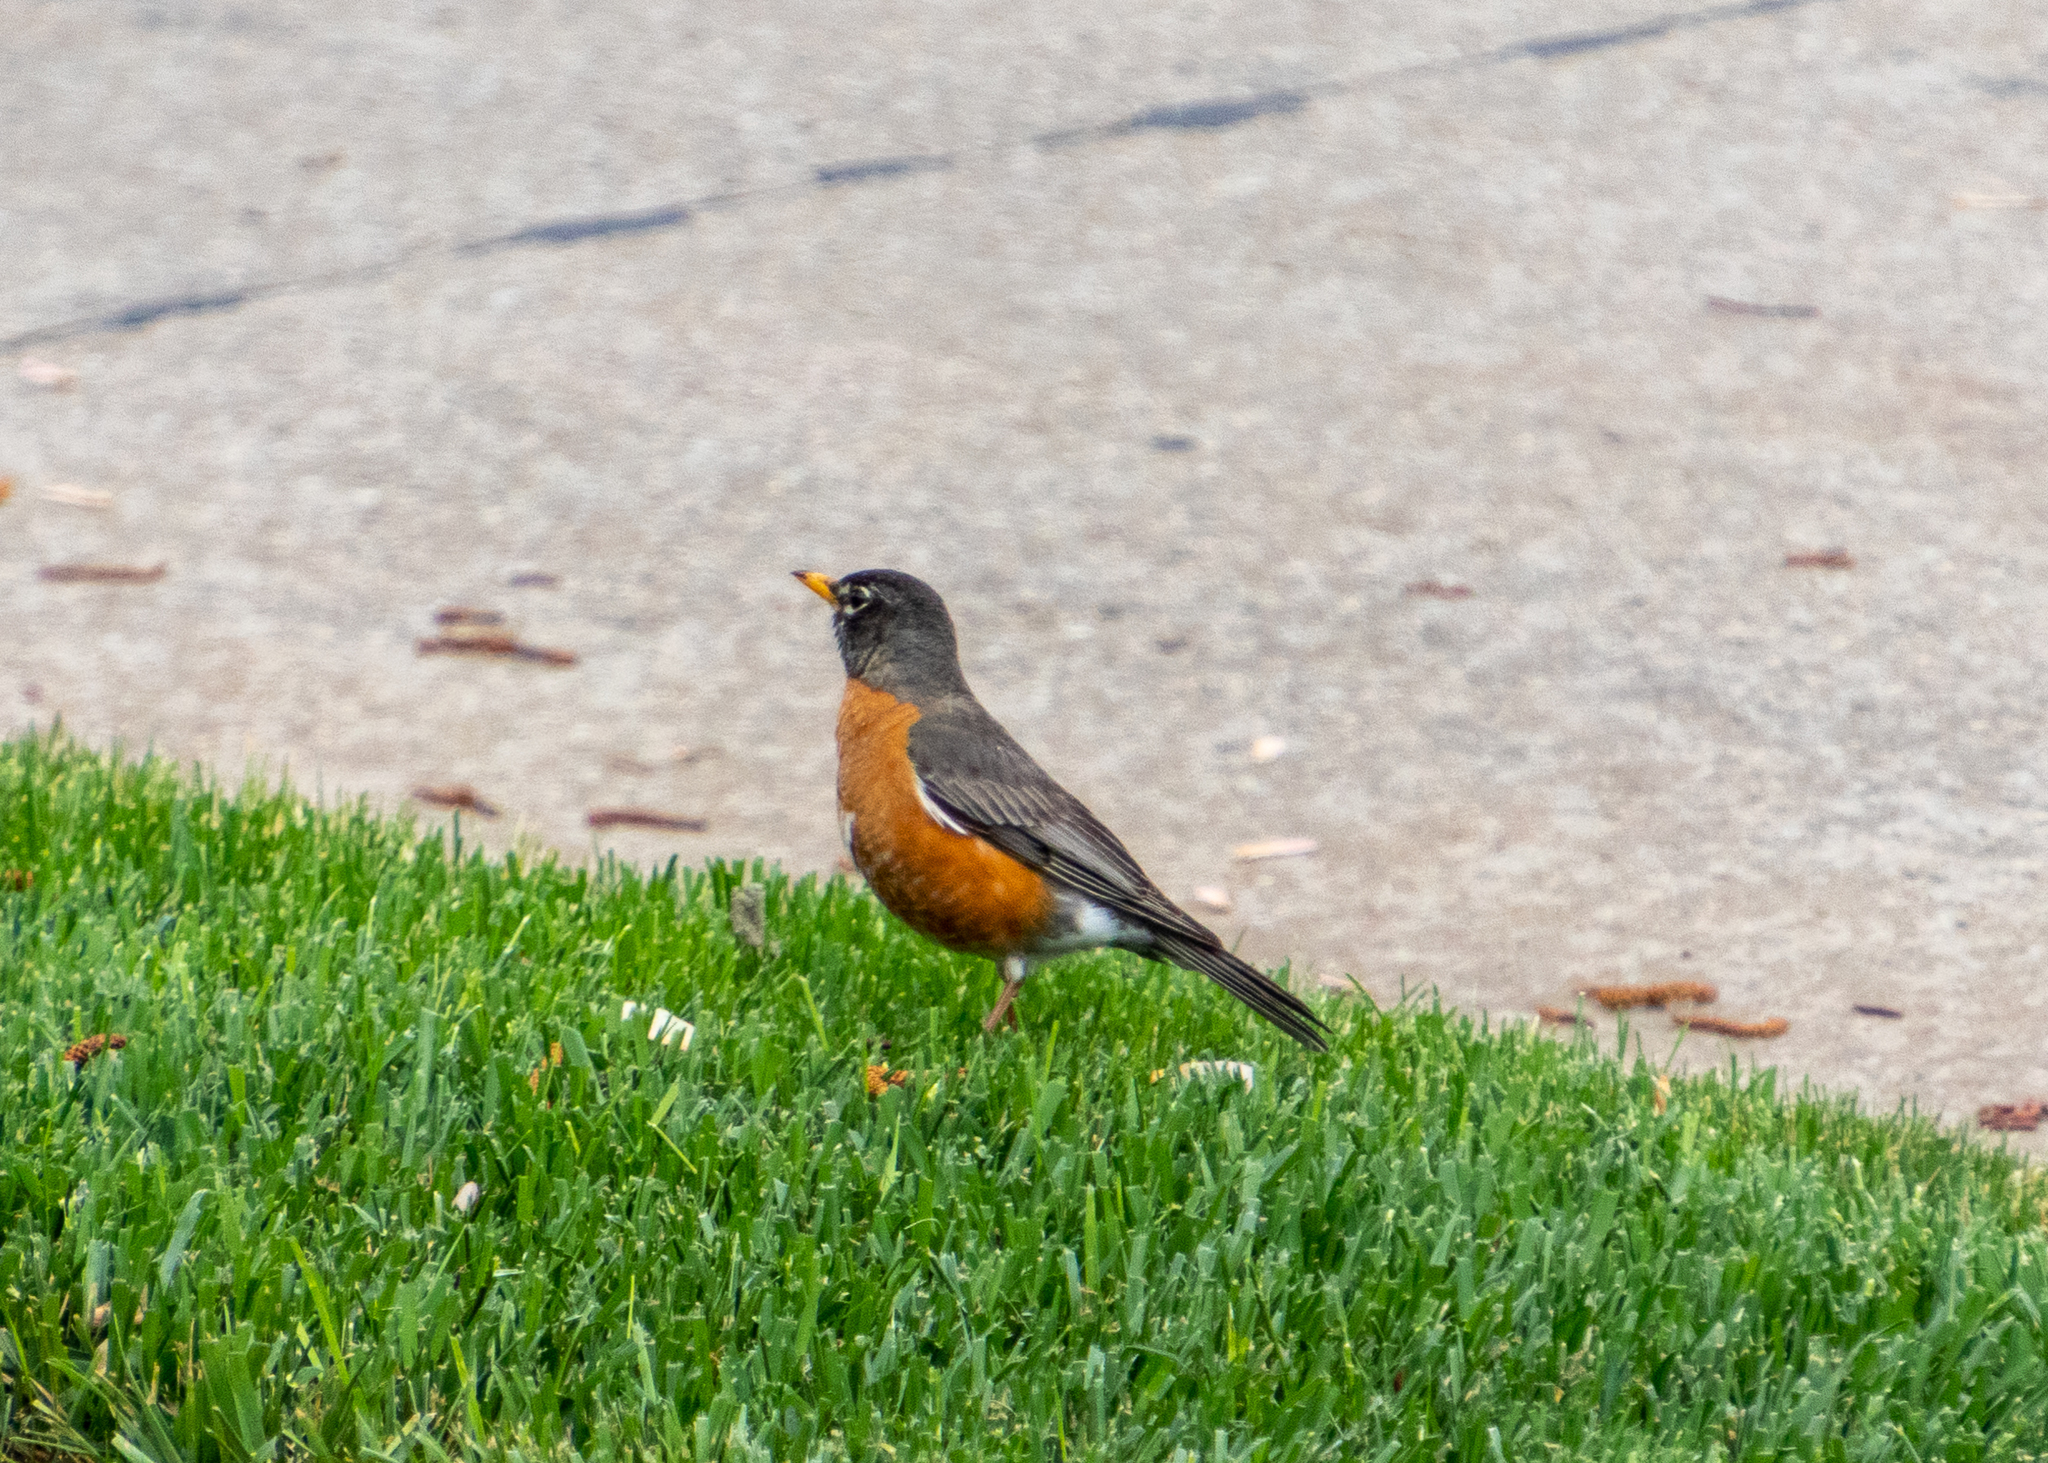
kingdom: Animalia
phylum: Chordata
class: Aves
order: Passeriformes
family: Turdidae
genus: Turdus
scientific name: Turdus migratorius
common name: American robin
